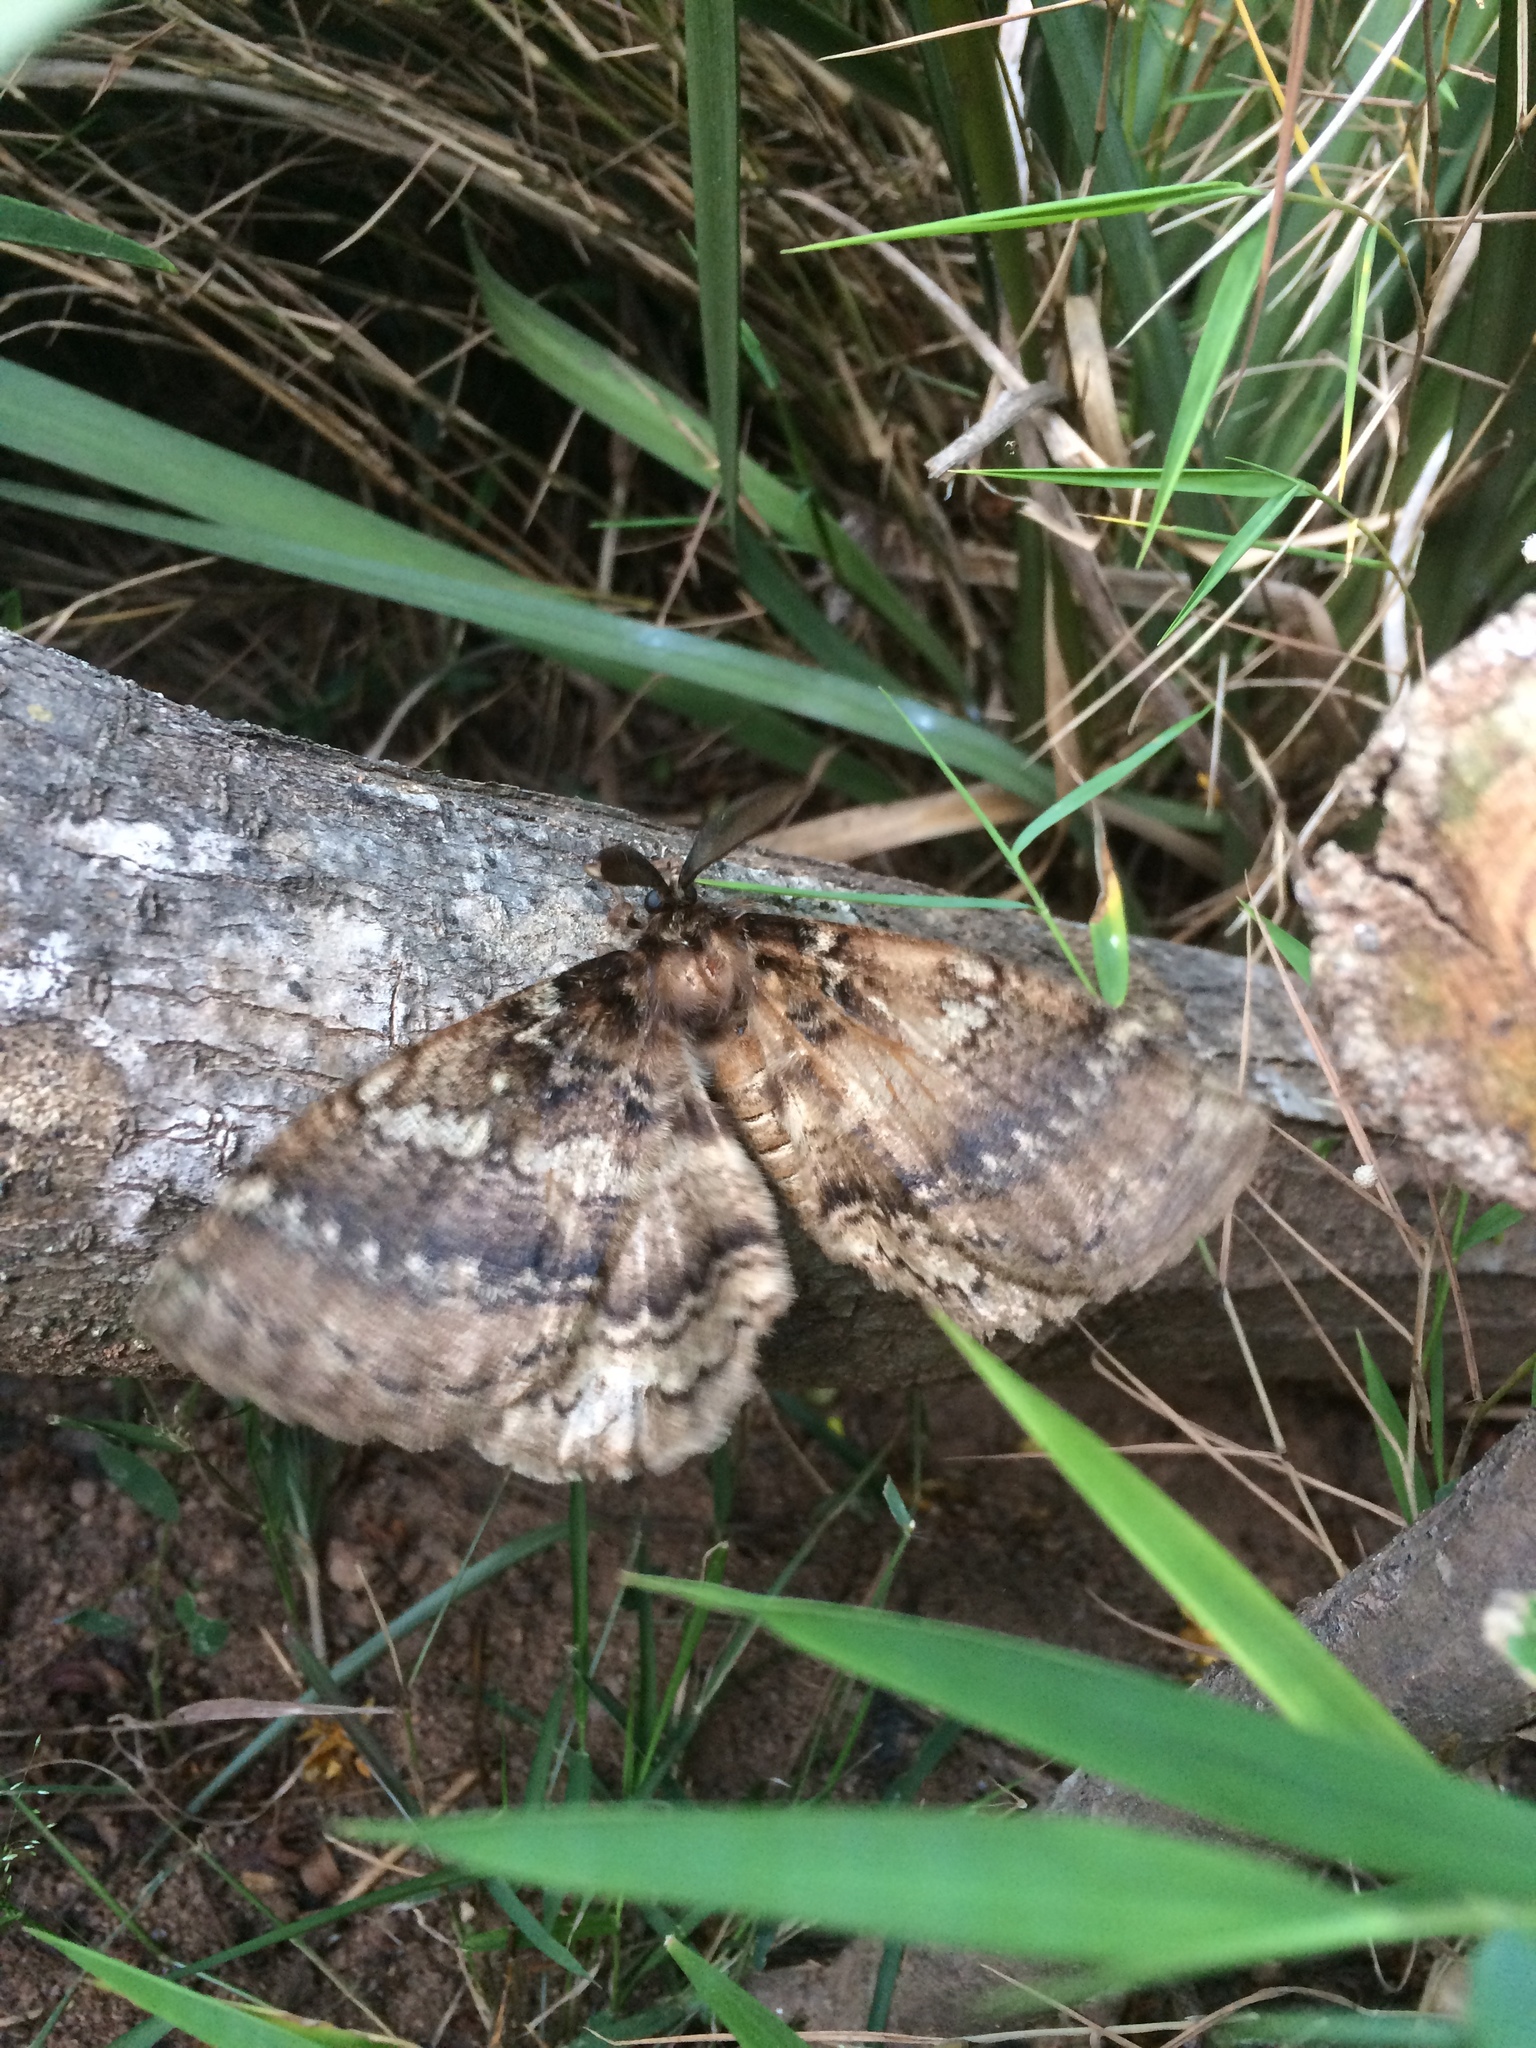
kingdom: Animalia
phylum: Arthropoda
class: Insecta
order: Lepidoptera
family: Eupterotidae
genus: Striphnopteryx
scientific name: Striphnopteryx edulis
